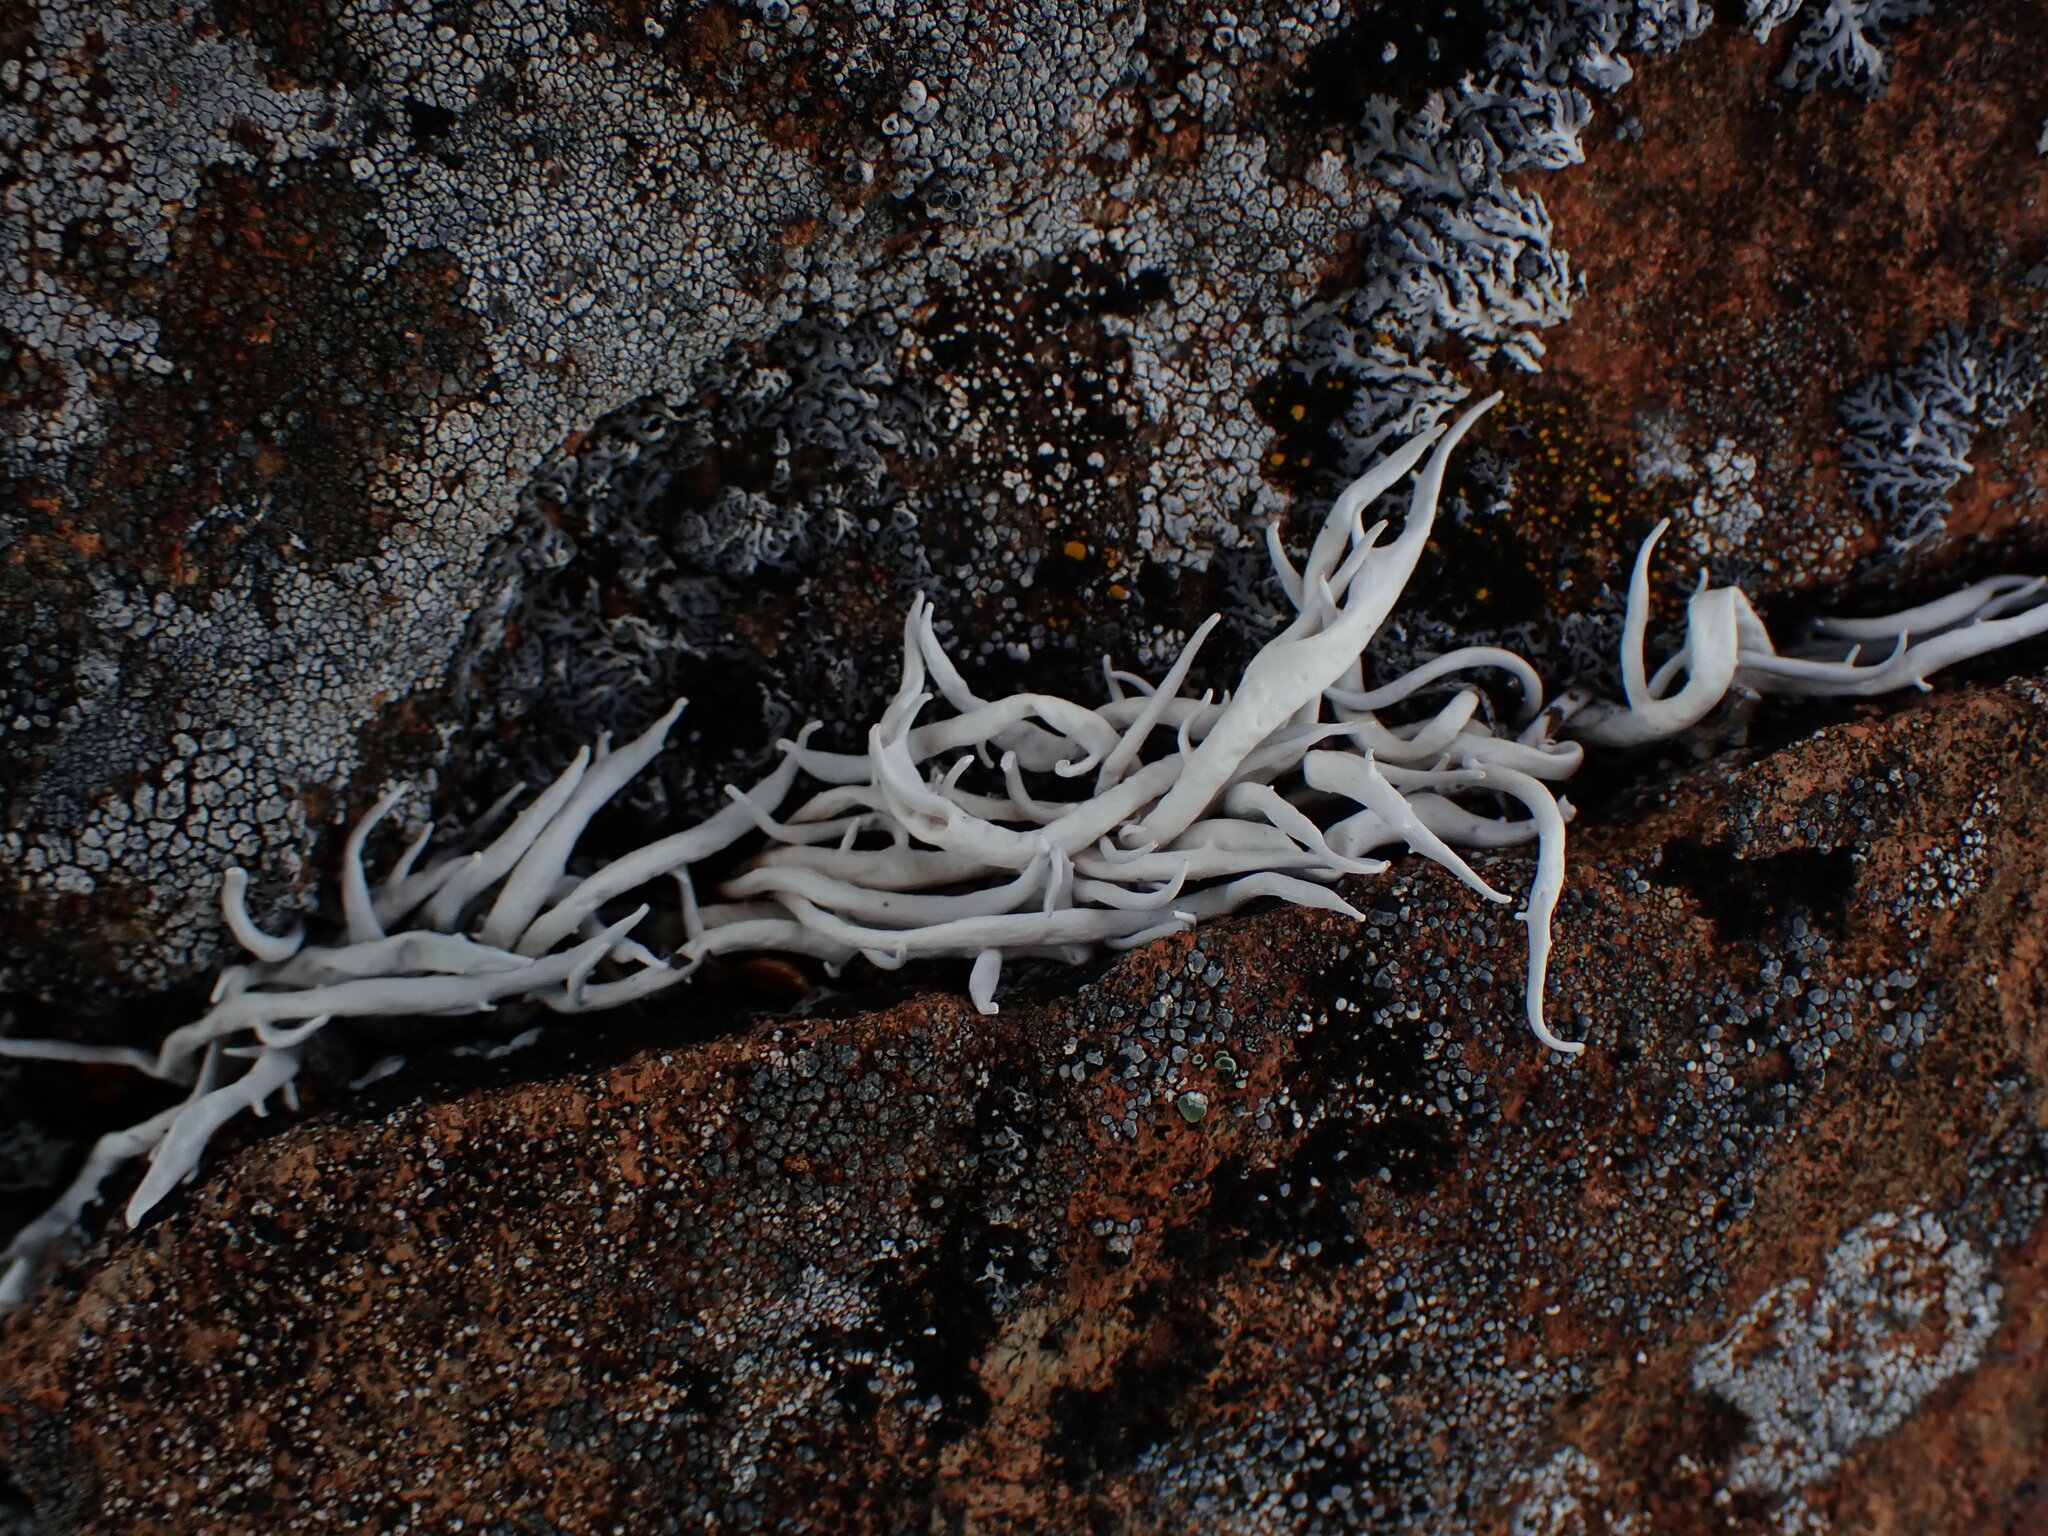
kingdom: Fungi
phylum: Ascomycota
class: Lecanoromycetes
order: Pertusariales
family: Icmadophilaceae
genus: Thamnolia
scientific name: Thamnolia vermicularis
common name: Whiteworm lichen
